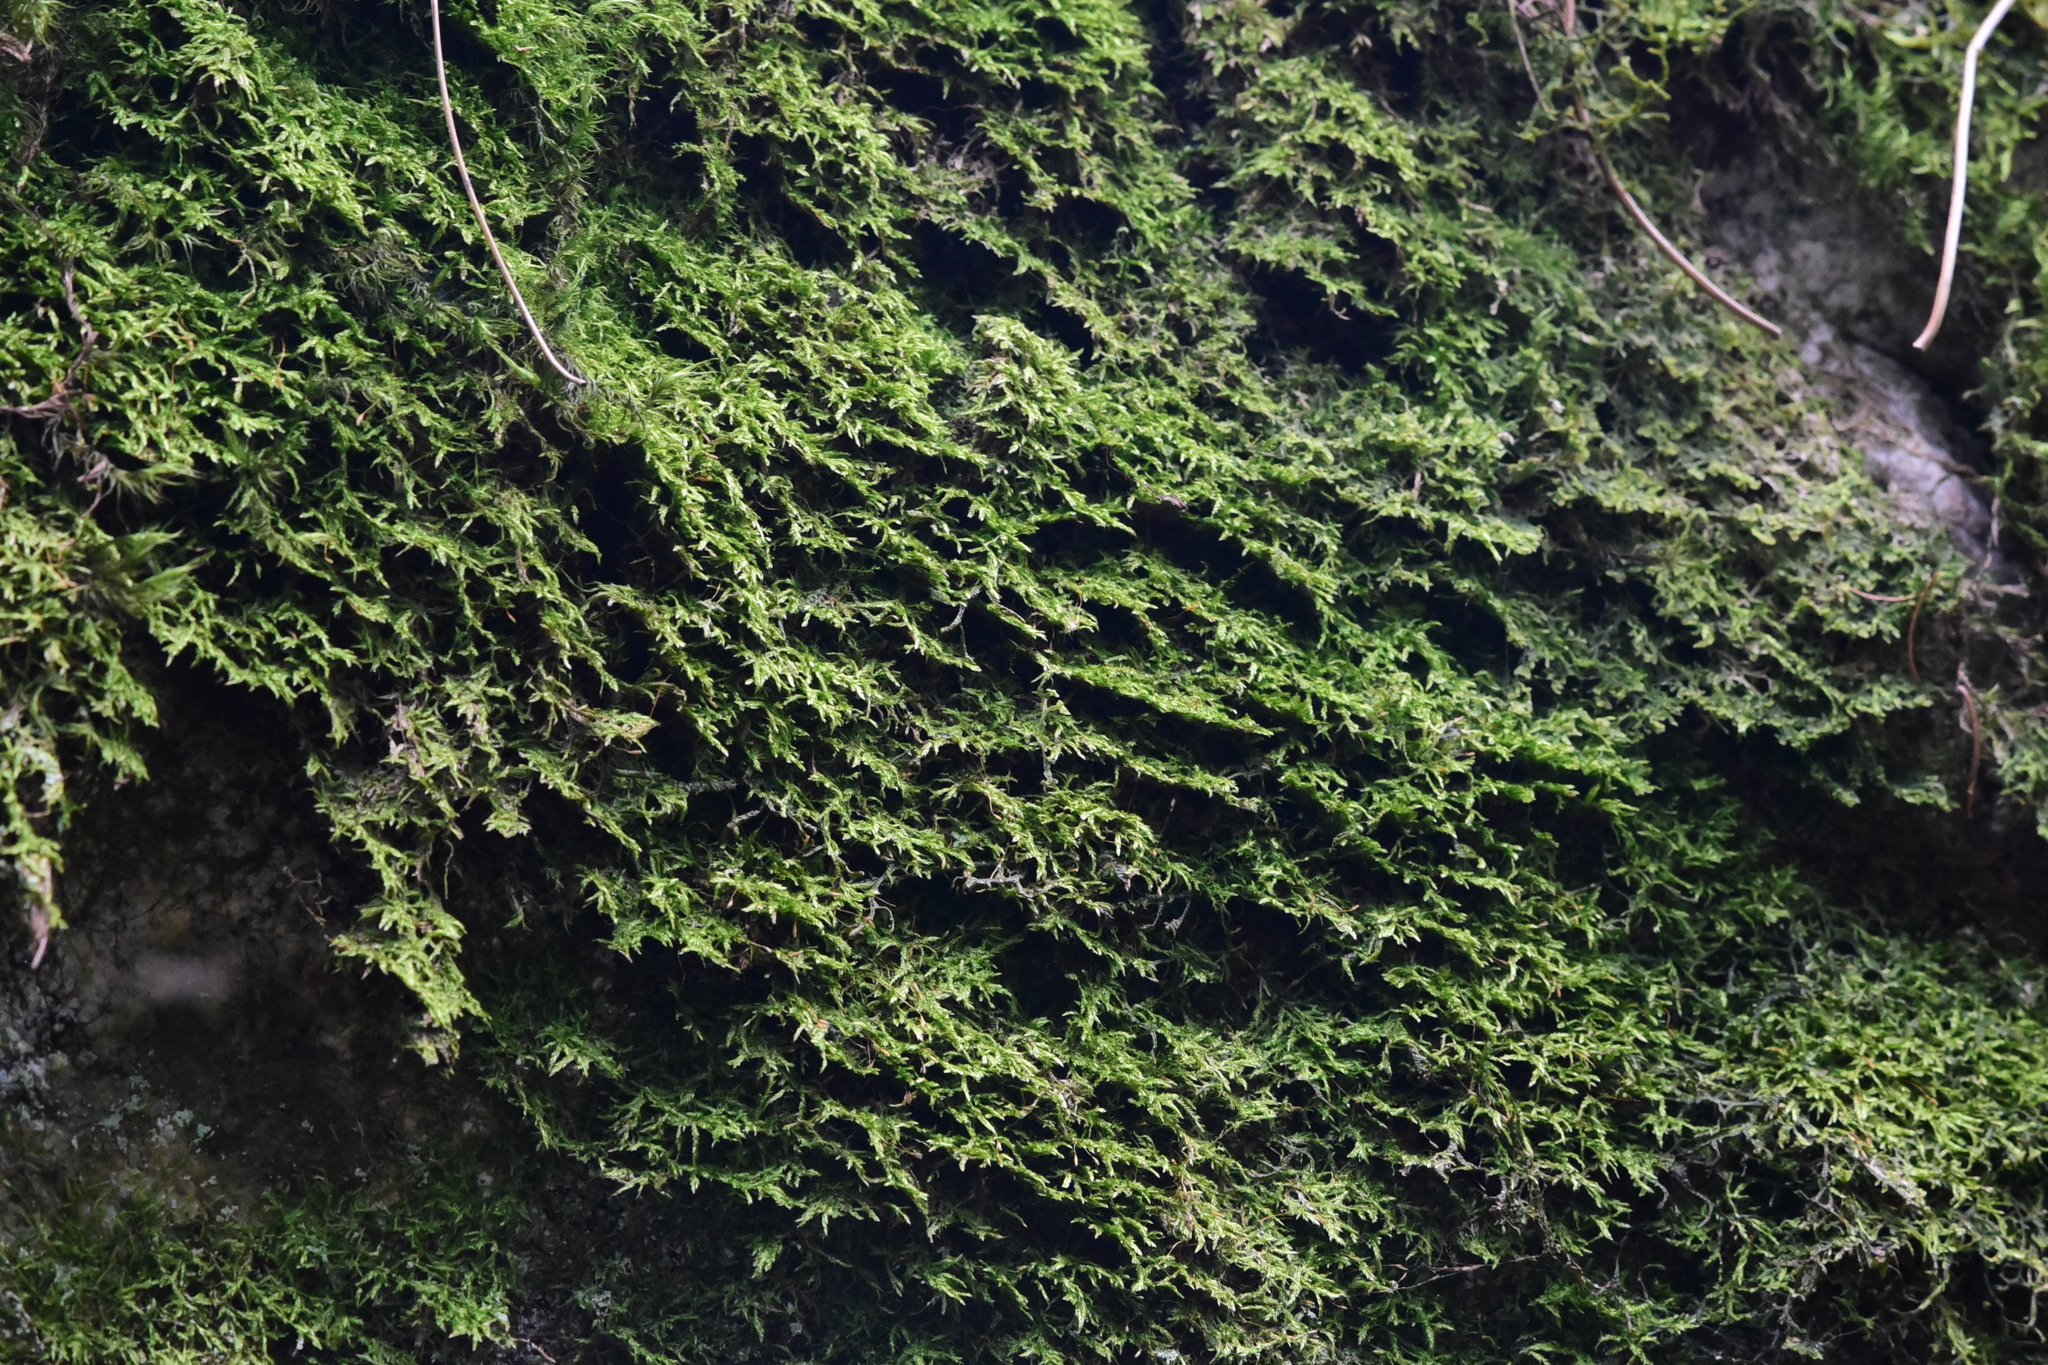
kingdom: Plantae
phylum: Marchantiophyta
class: Jungermanniopsida
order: Metzgeriales
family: Metzgeriaceae
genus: Metzgeria
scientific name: Metzgeria pubescens
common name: Downy veilwort
